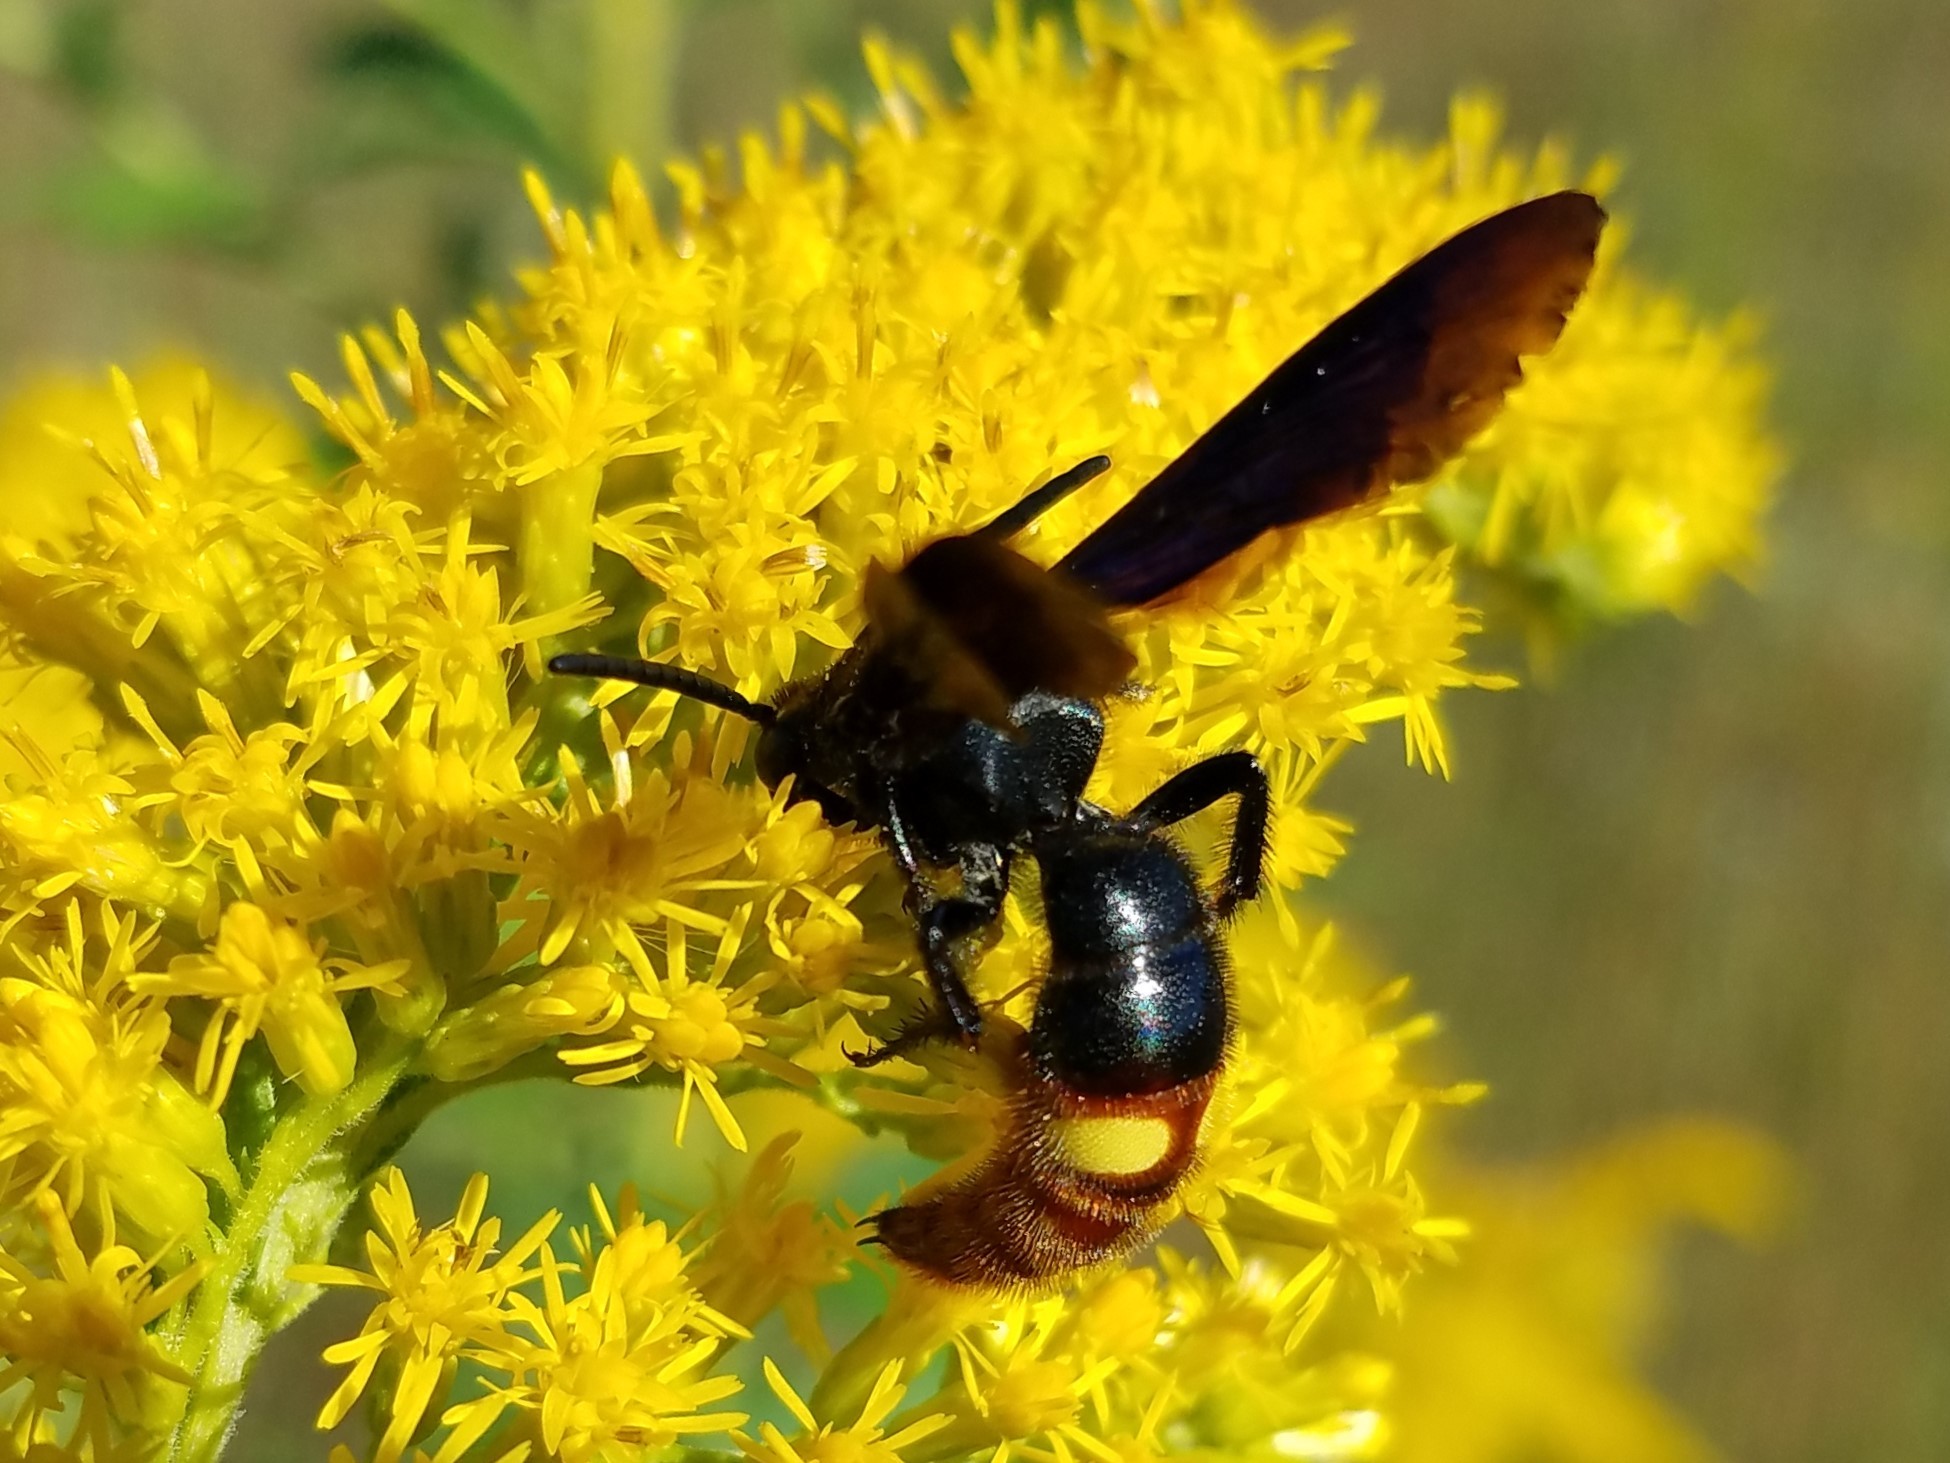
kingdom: Animalia
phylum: Arthropoda
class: Insecta
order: Hymenoptera
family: Scoliidae
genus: Scolia
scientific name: Scolia dubia
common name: Blue-winged scoliid wasp
